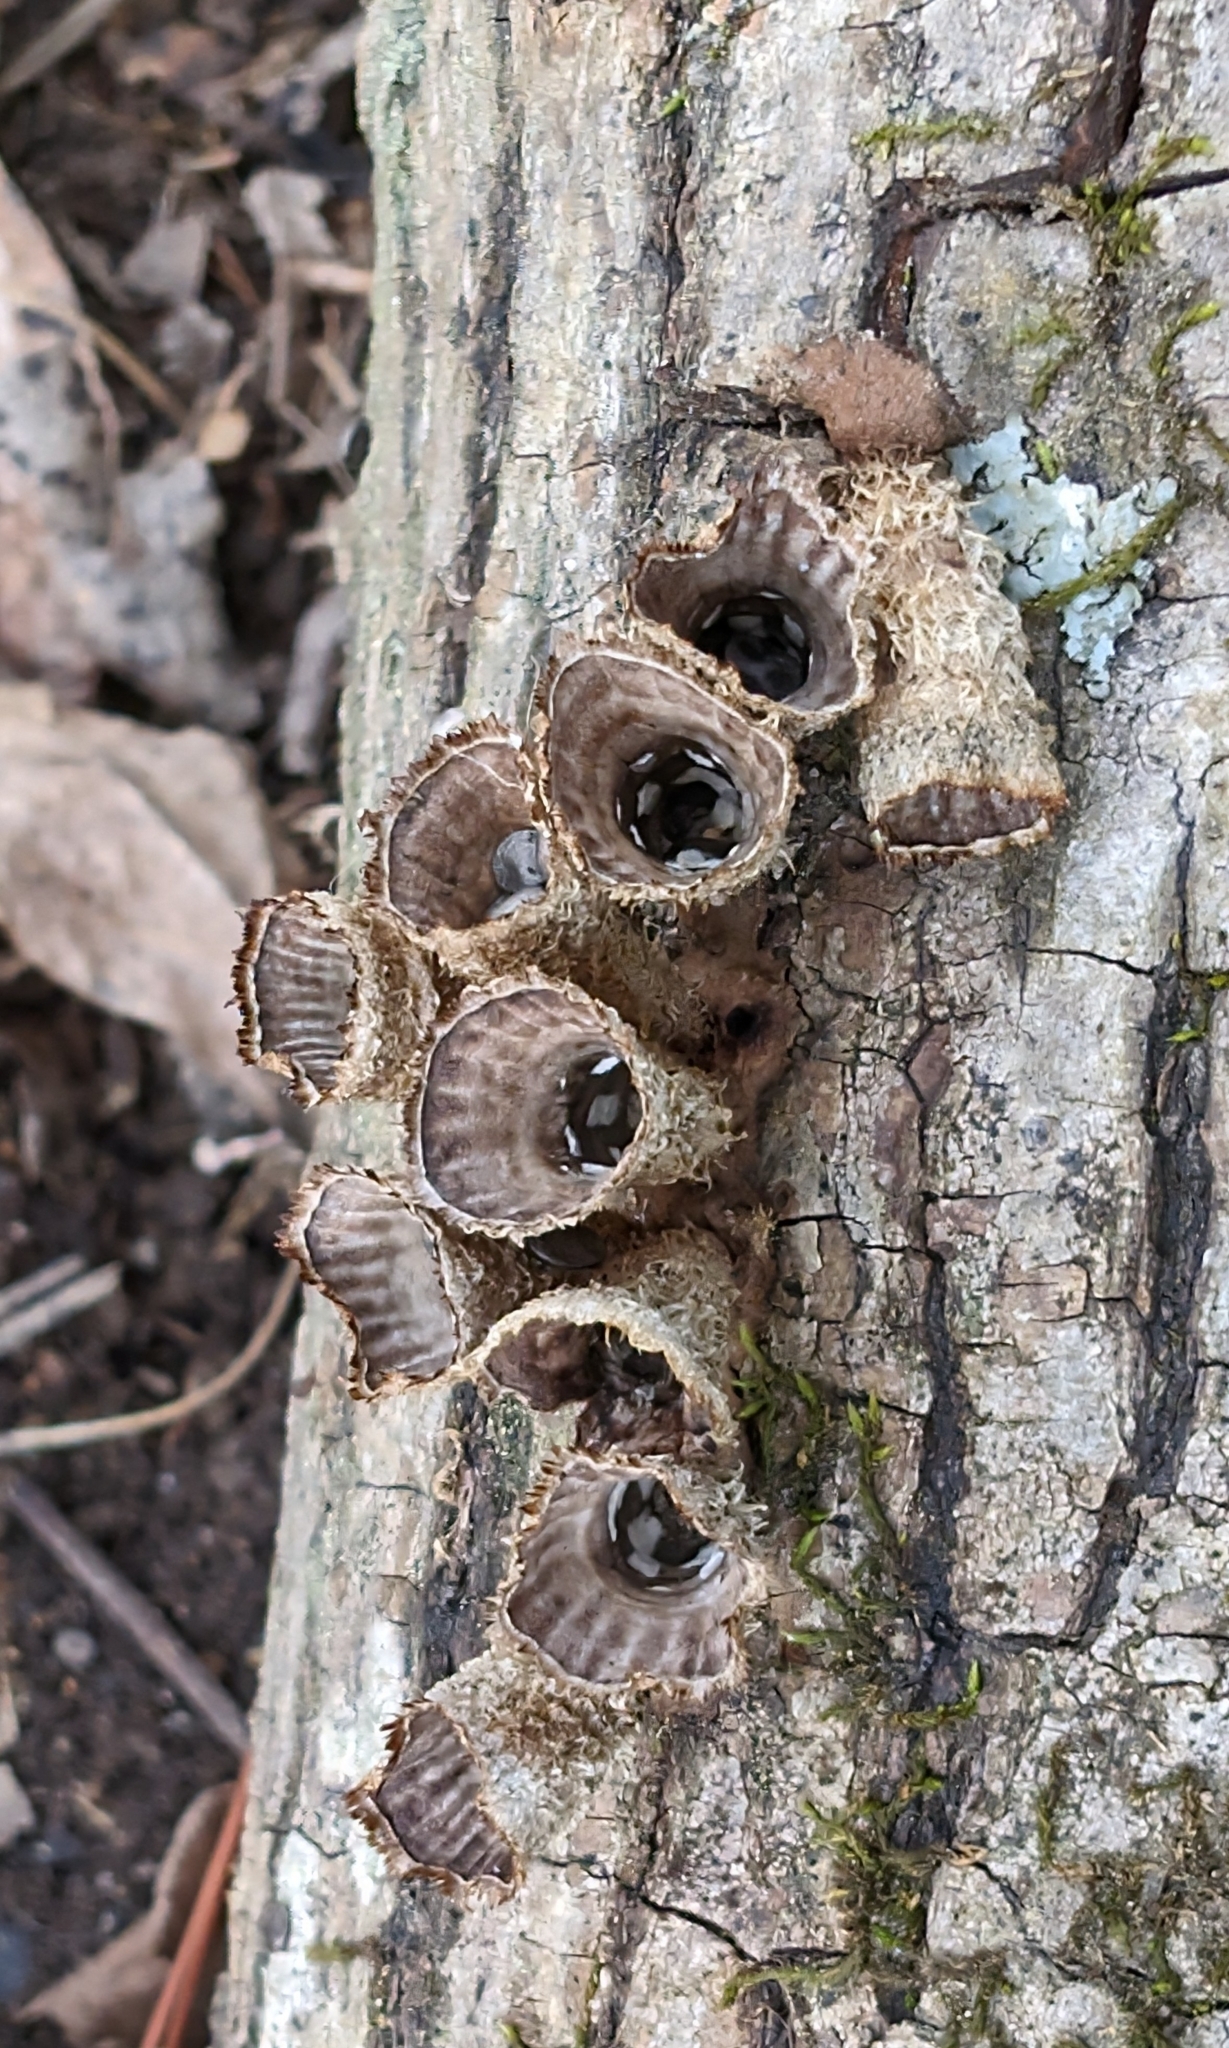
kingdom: Fungi
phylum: Basidiomycota
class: Agaricomycetes
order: Agaricales
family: Agaricaceae
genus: Cyathus
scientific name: Cyathus striatus
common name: Fluted bird's nest
